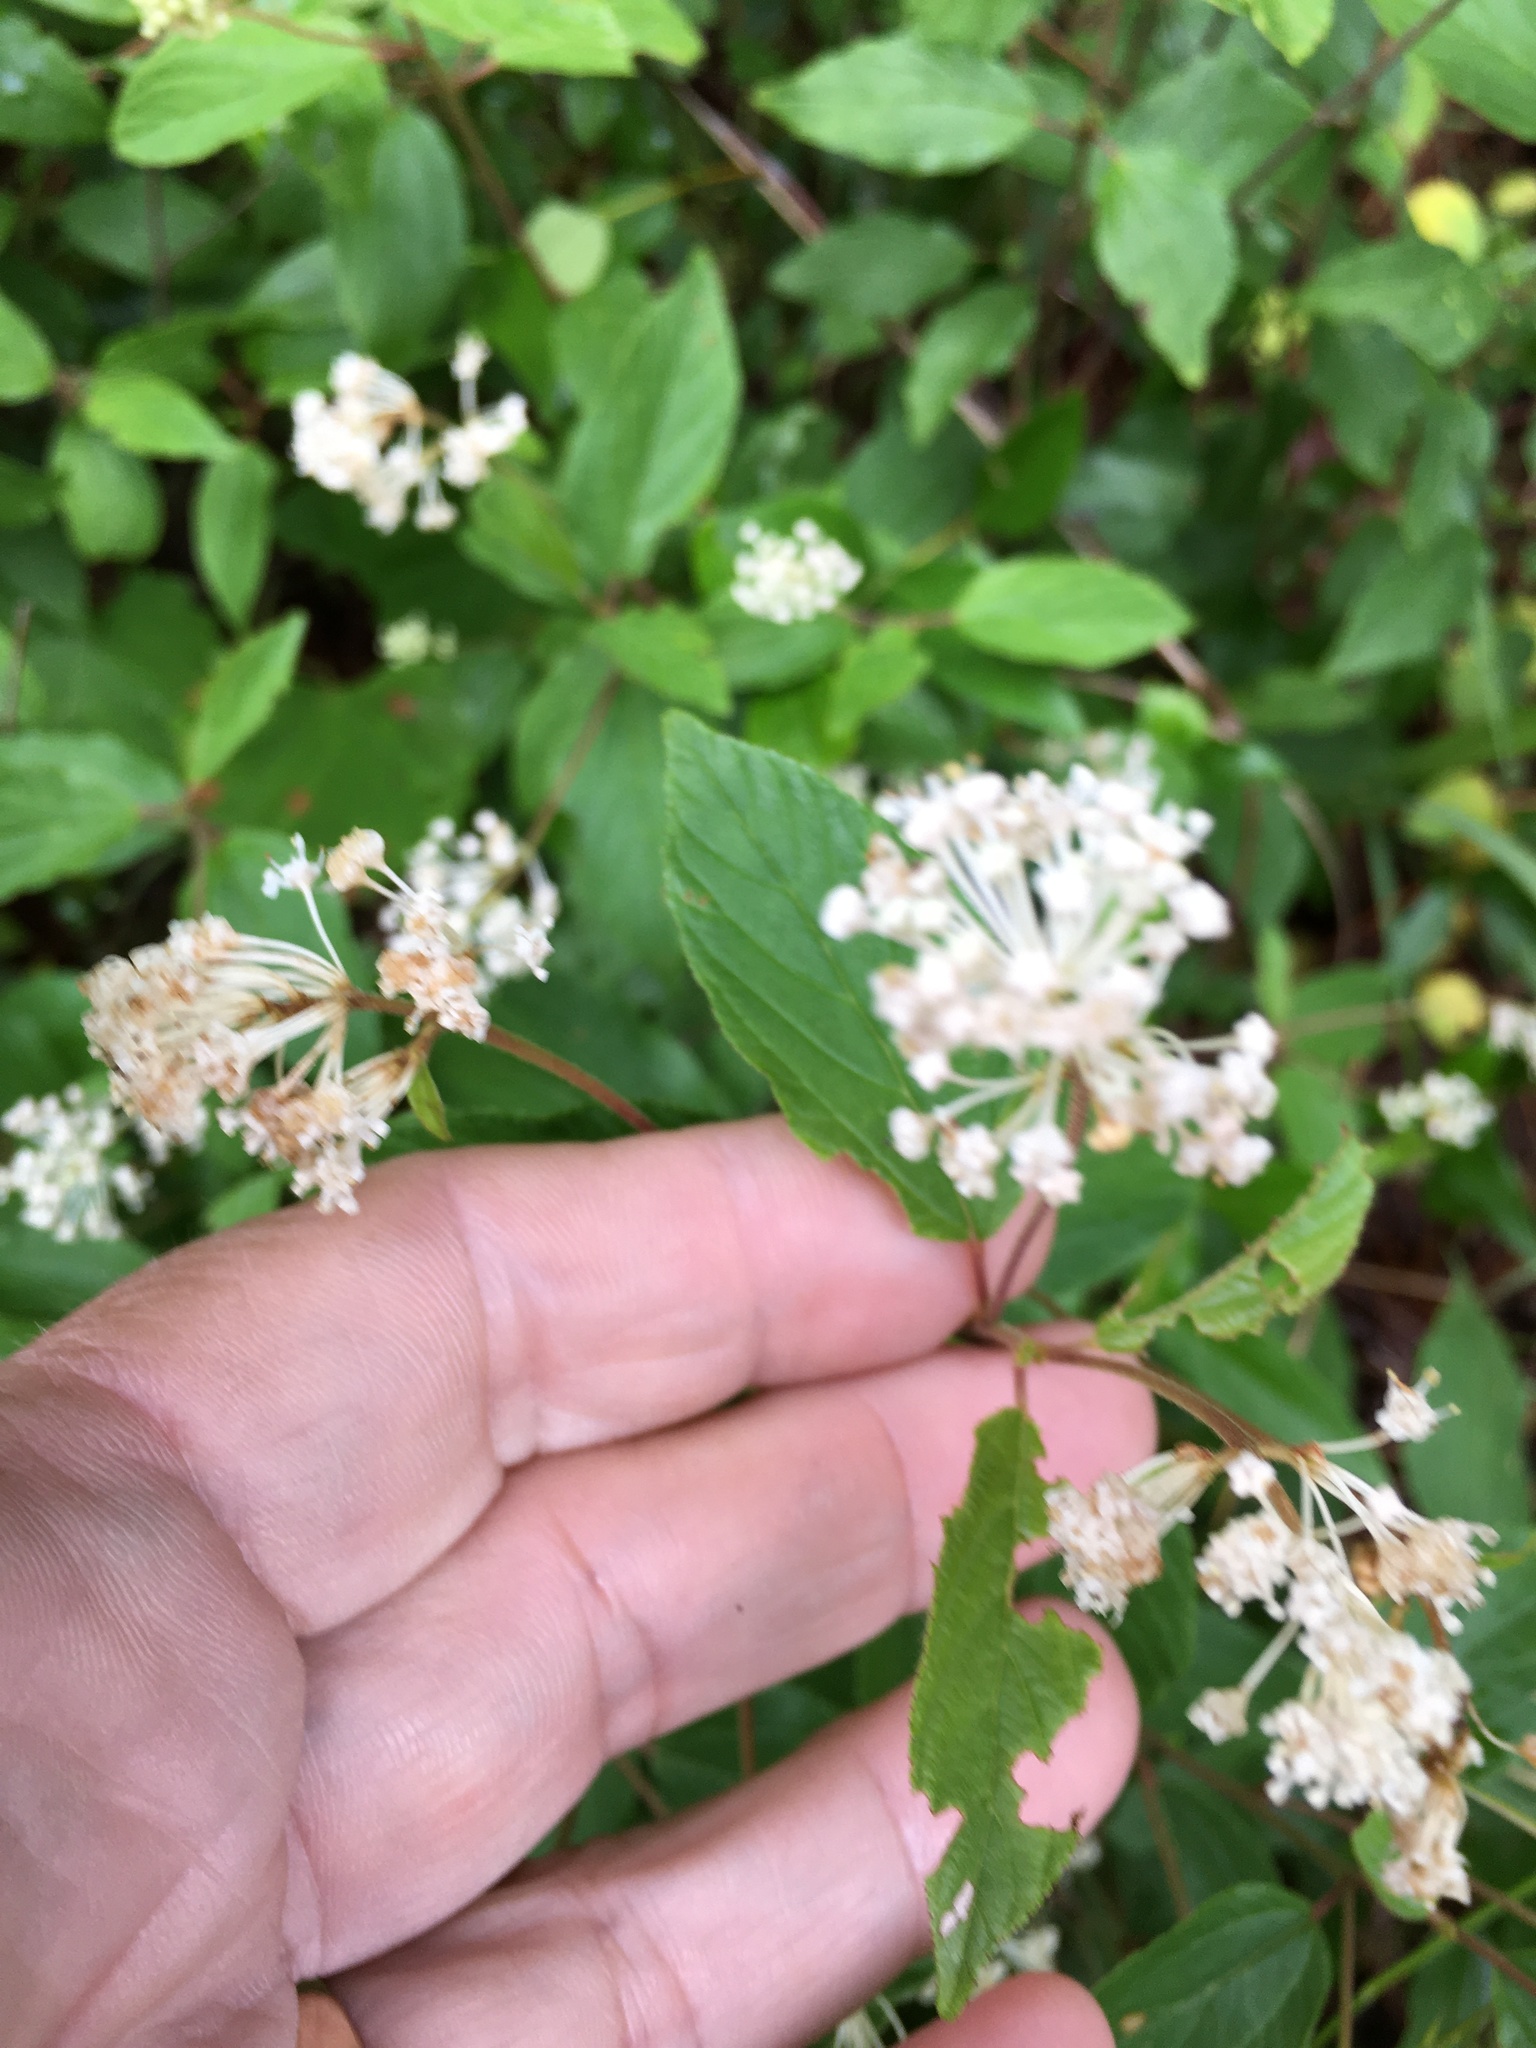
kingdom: Plantae
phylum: Tracheophyta
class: Magnoliopsida
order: Rosales
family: Rhamnaceae
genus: Ceanothus
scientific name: Ceanothus americanus
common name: Redroot
